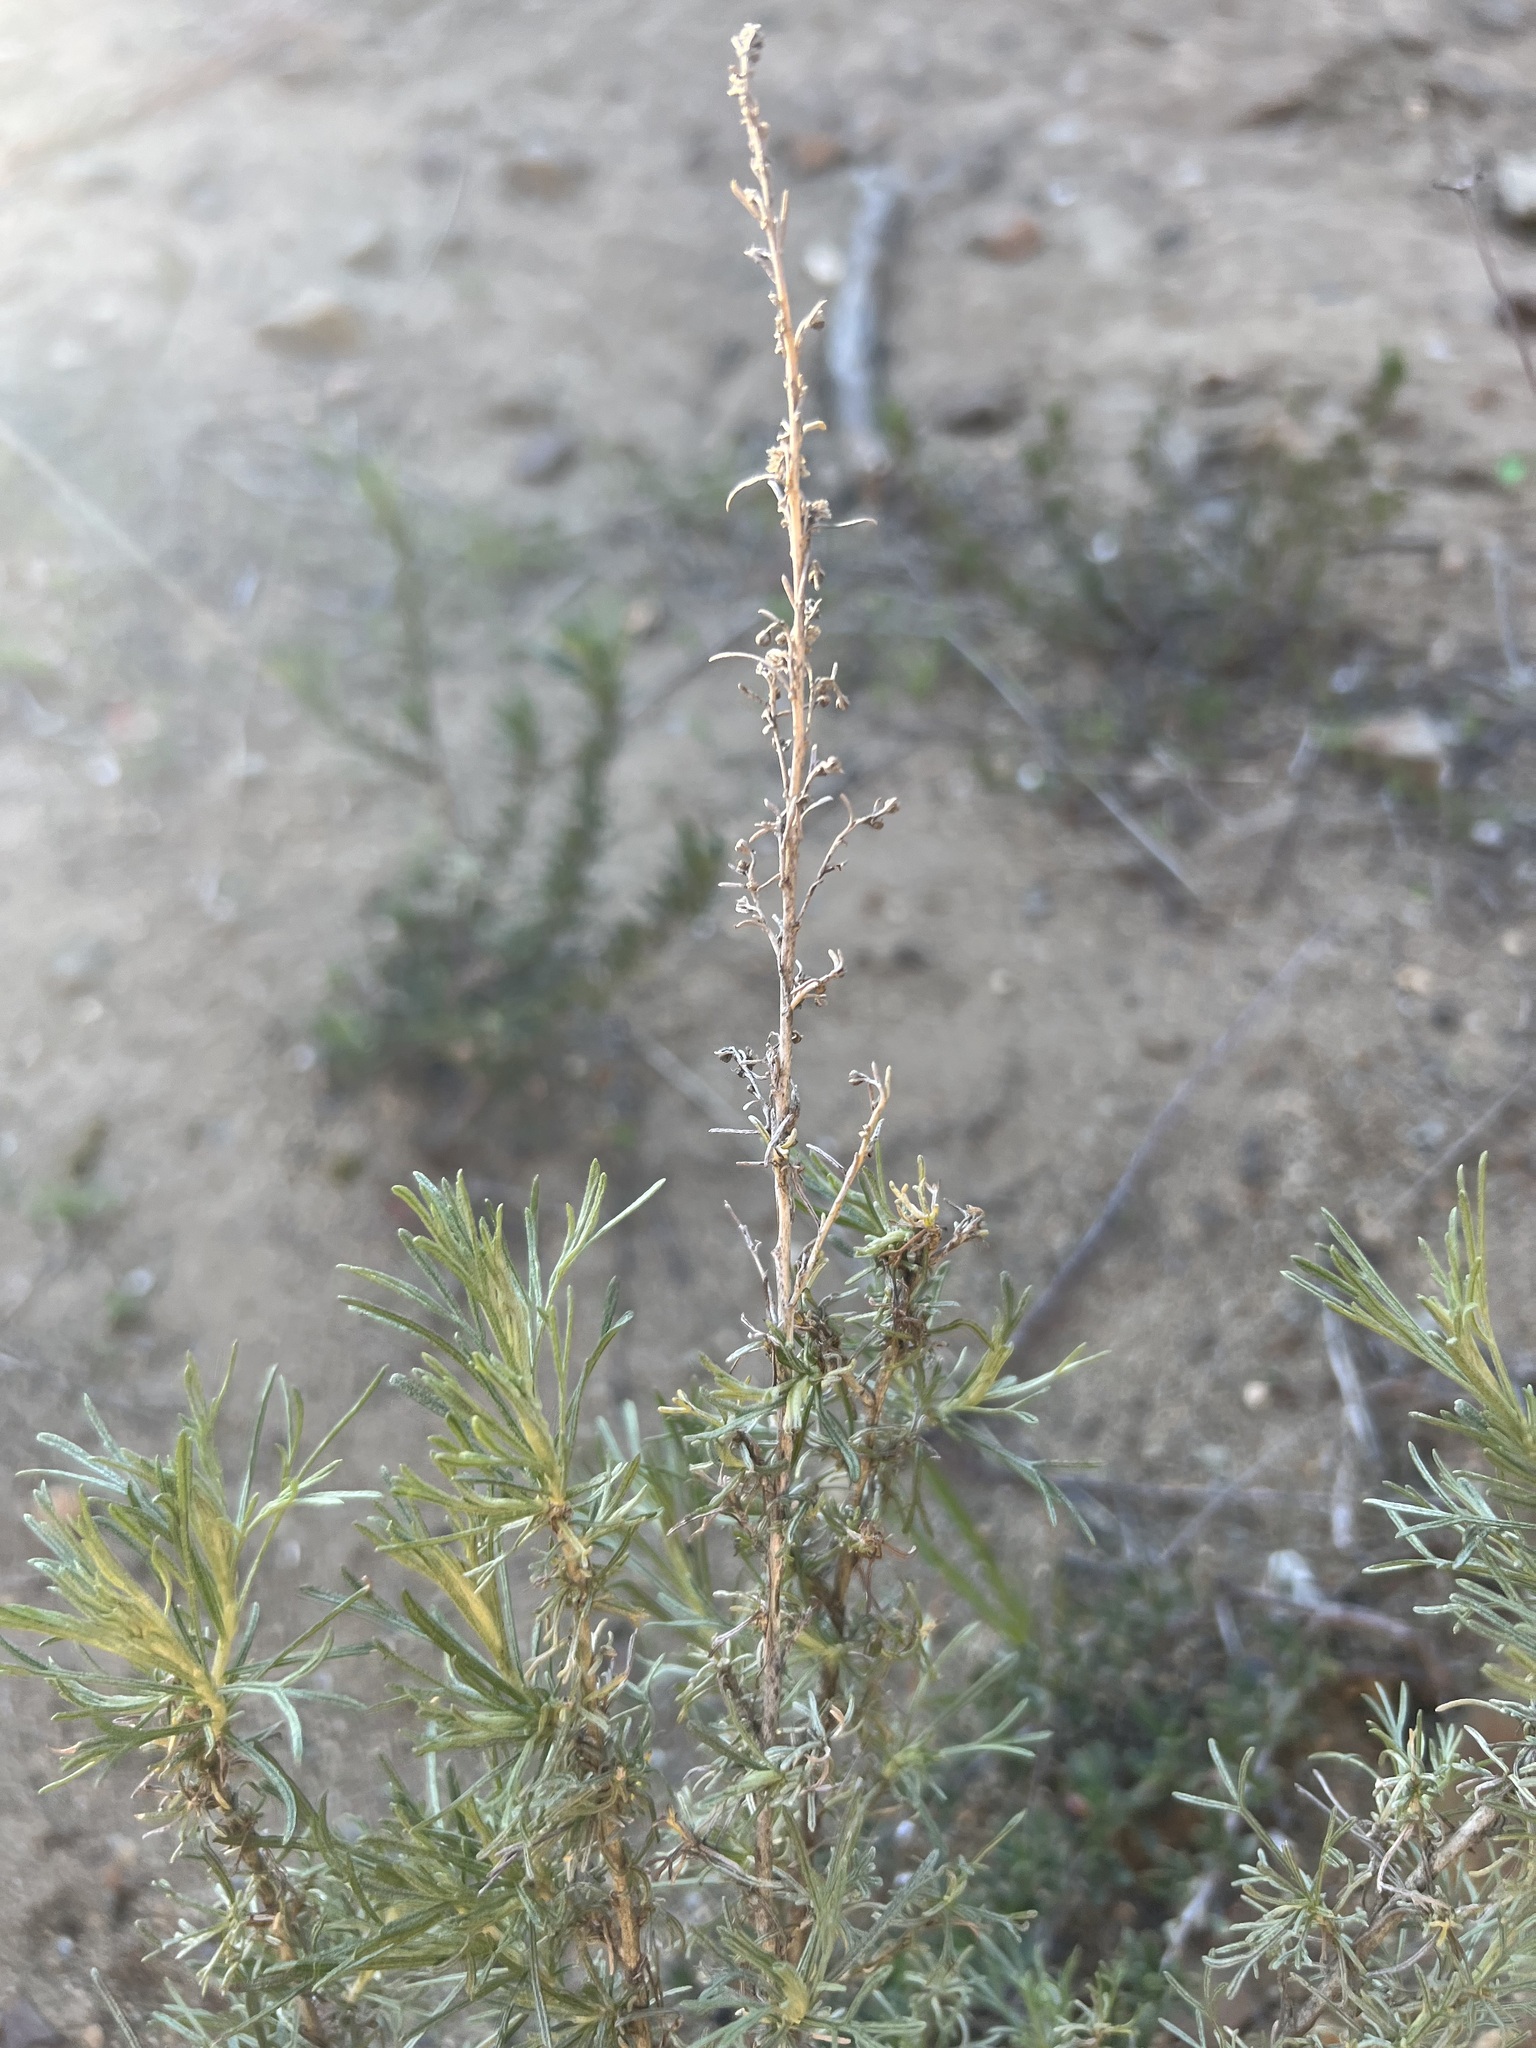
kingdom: Plantae
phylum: Tracheophyta
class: Magnoliopsida
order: Asterales
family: Asteraceae
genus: Artemisia
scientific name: Artemisia californica
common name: California sagebrush
